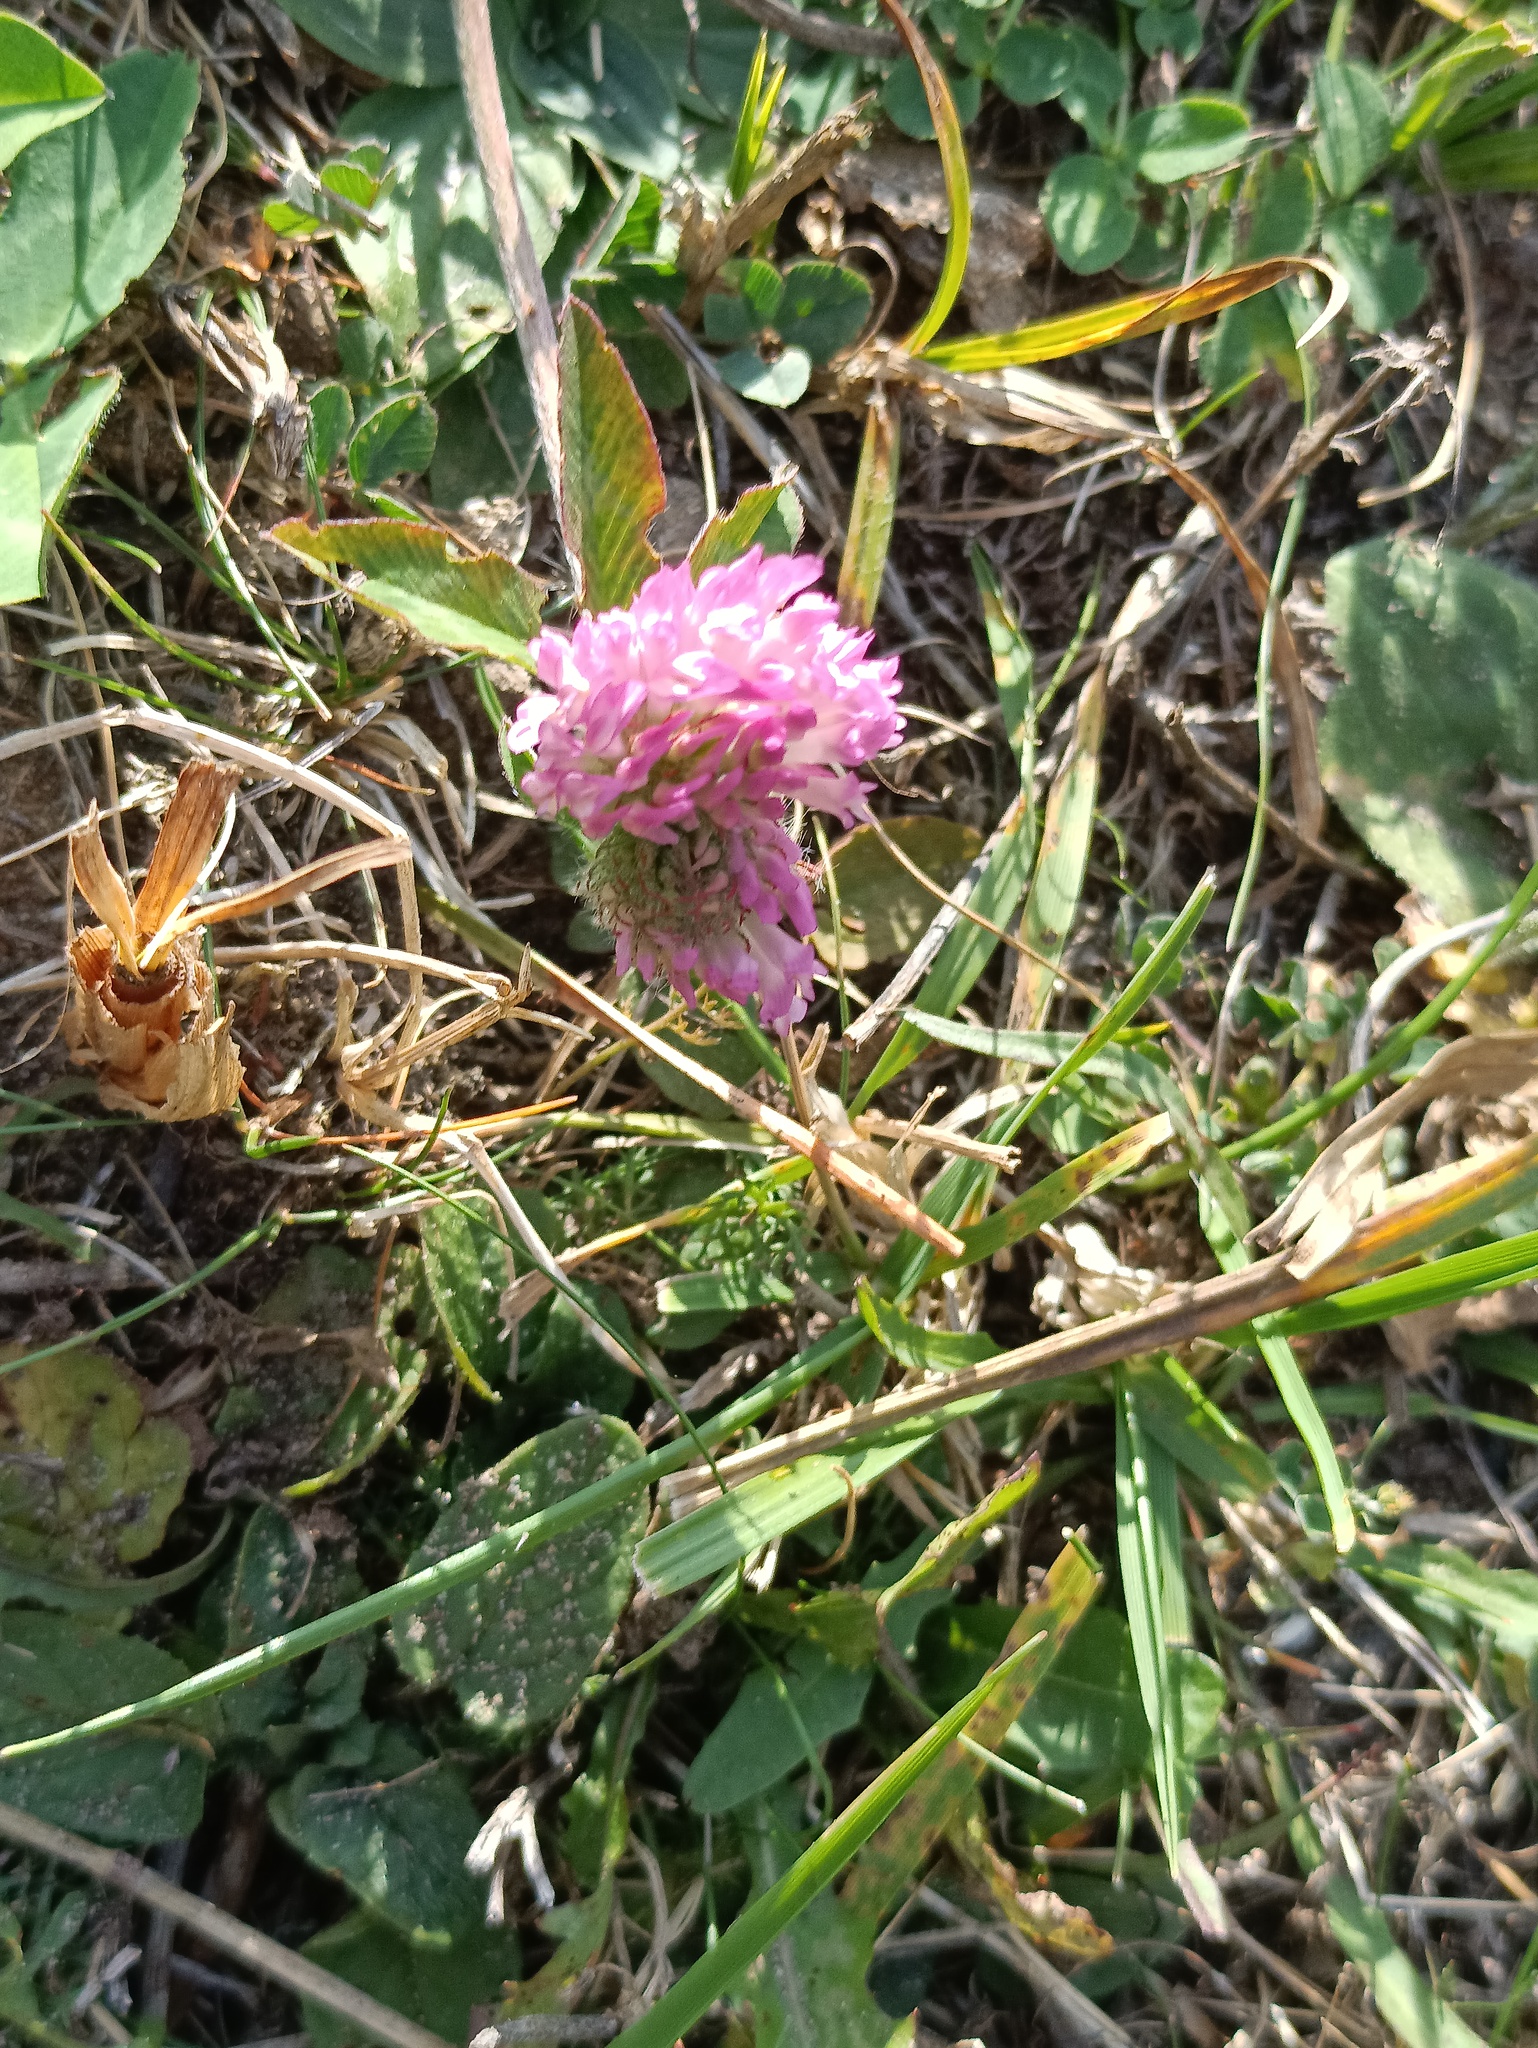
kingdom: Plantae
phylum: Tracheophyta
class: Magnoliopsida
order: Fabales
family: Fabaceae
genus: Trifolium
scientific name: Trifolium pratense
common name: Red clover
